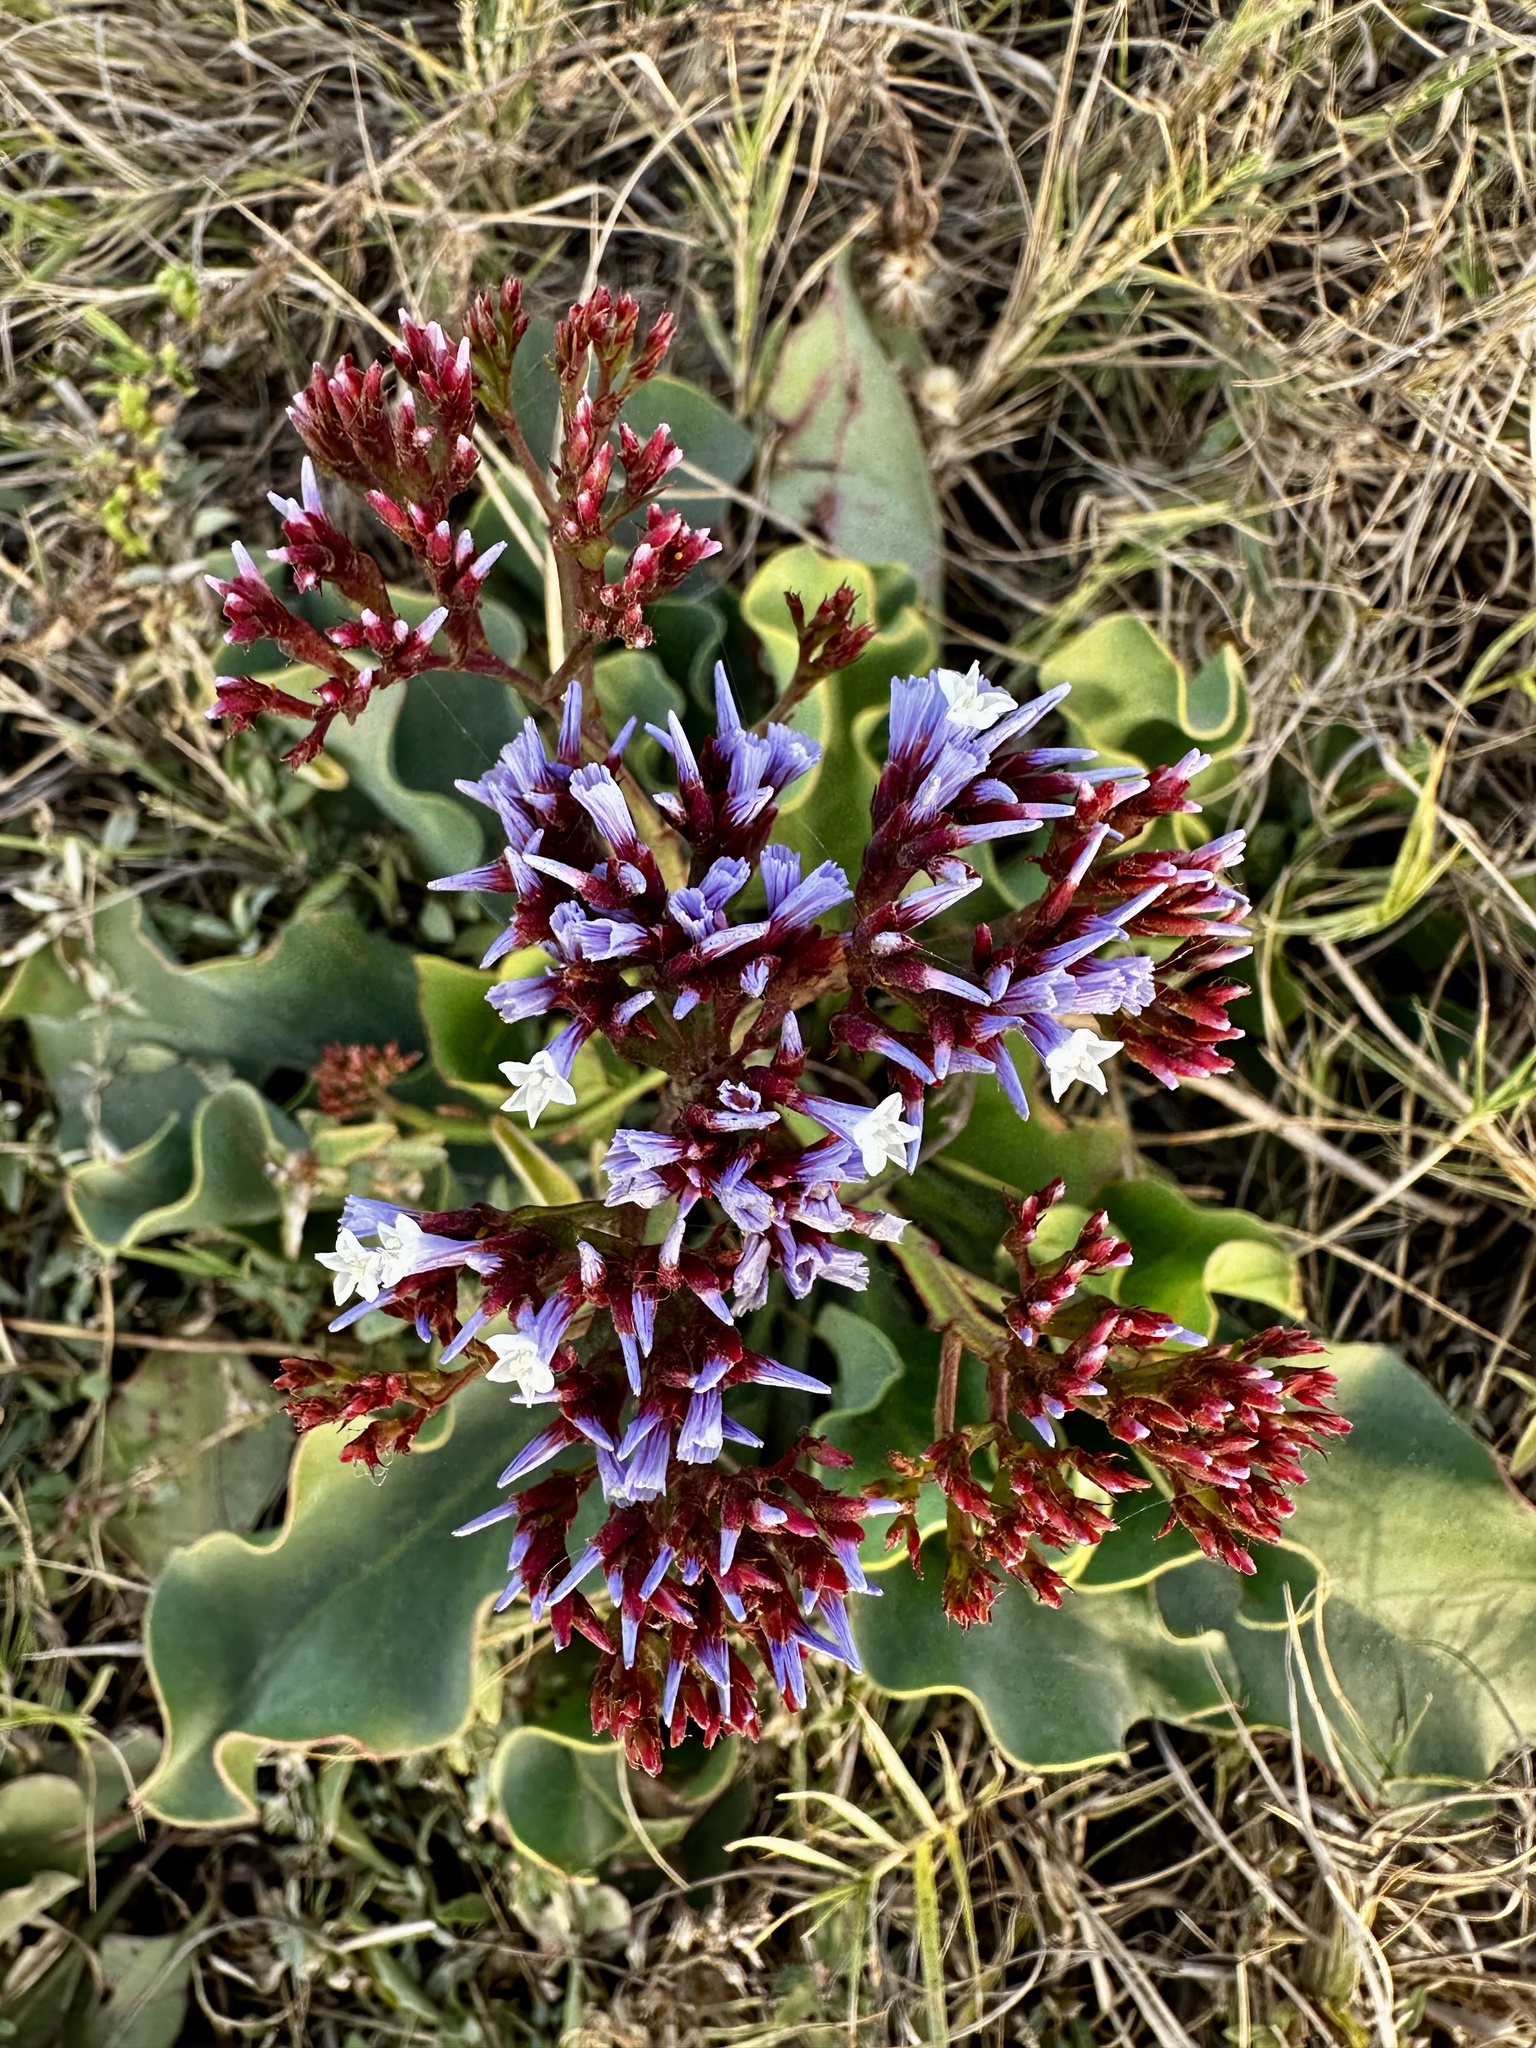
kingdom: Plantae
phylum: Tracheophyta
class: Magnoliopsida
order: Caryophyllales
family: Plumbaginaceae
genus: Limonium
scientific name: Limonium perezii
